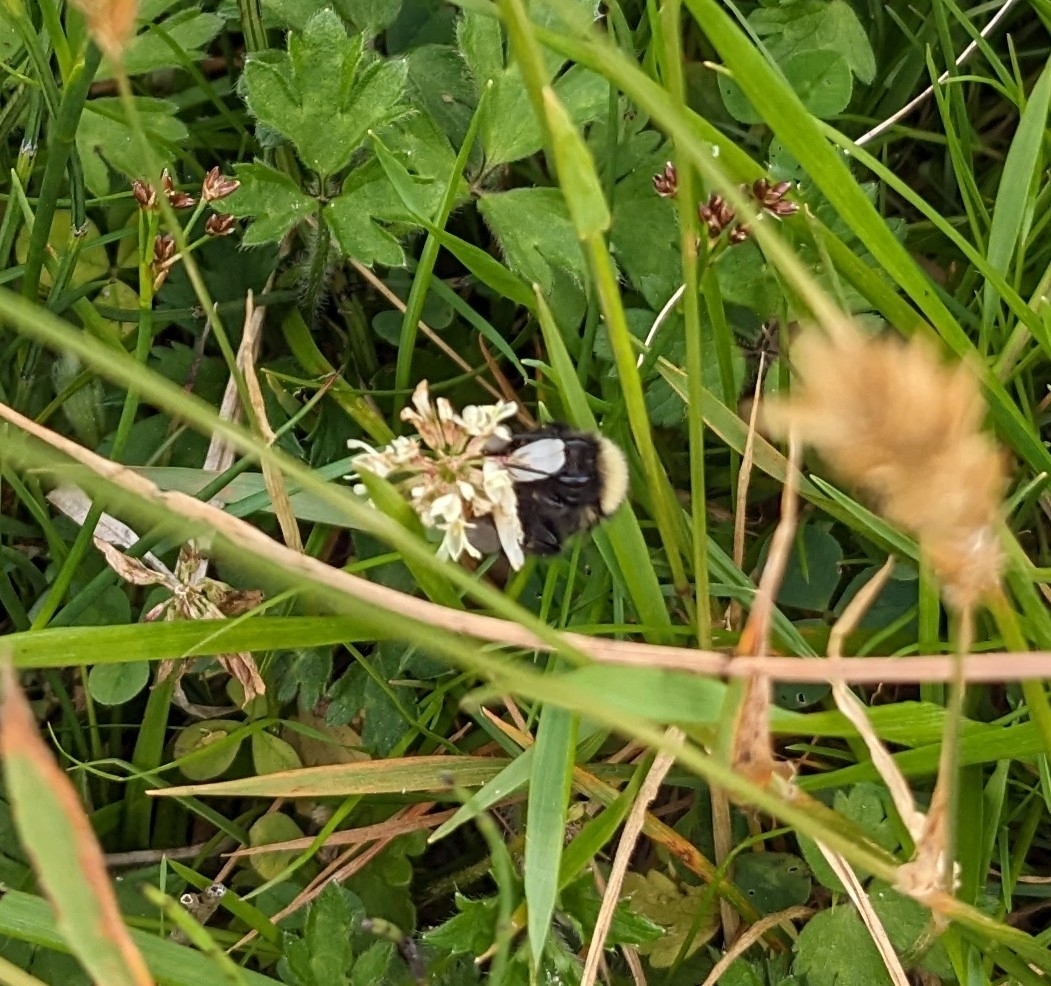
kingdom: Animalia
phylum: Arthropoda
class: Insecta
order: Hymenoptera
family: Apidae
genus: Bombus
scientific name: Bombus monticola
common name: Bilberry humble-bee
